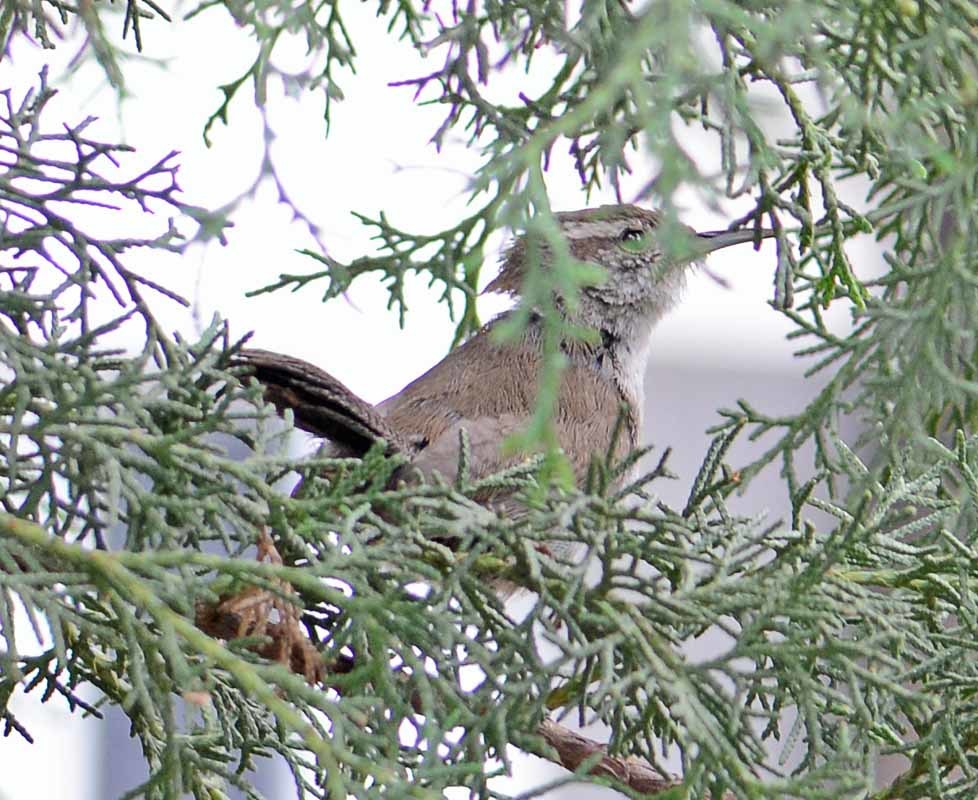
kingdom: Animalia
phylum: Chordata
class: Aves
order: Passeriformes
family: Troglodytidae
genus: Thryomanes
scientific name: Thryomanes bewickii
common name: Bewick's wren
